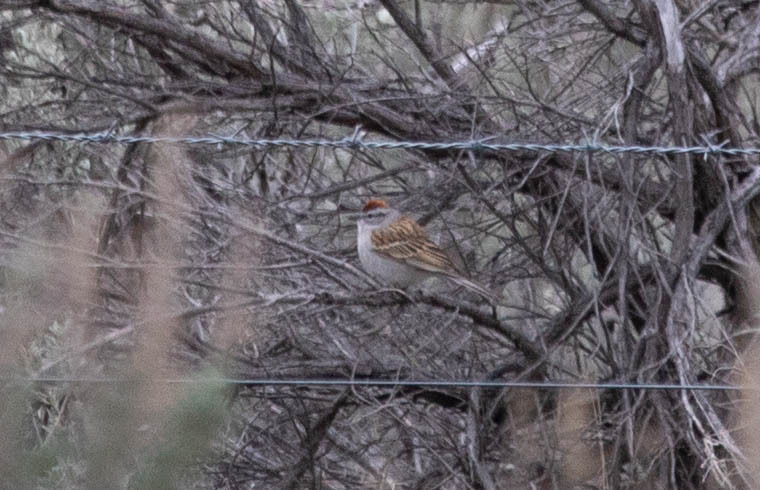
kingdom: Animalia
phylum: Chordata
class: Aves
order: Passeriformes
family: Passerellidae
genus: Spizella
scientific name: Spizella passerina
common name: Chipping sparrow
